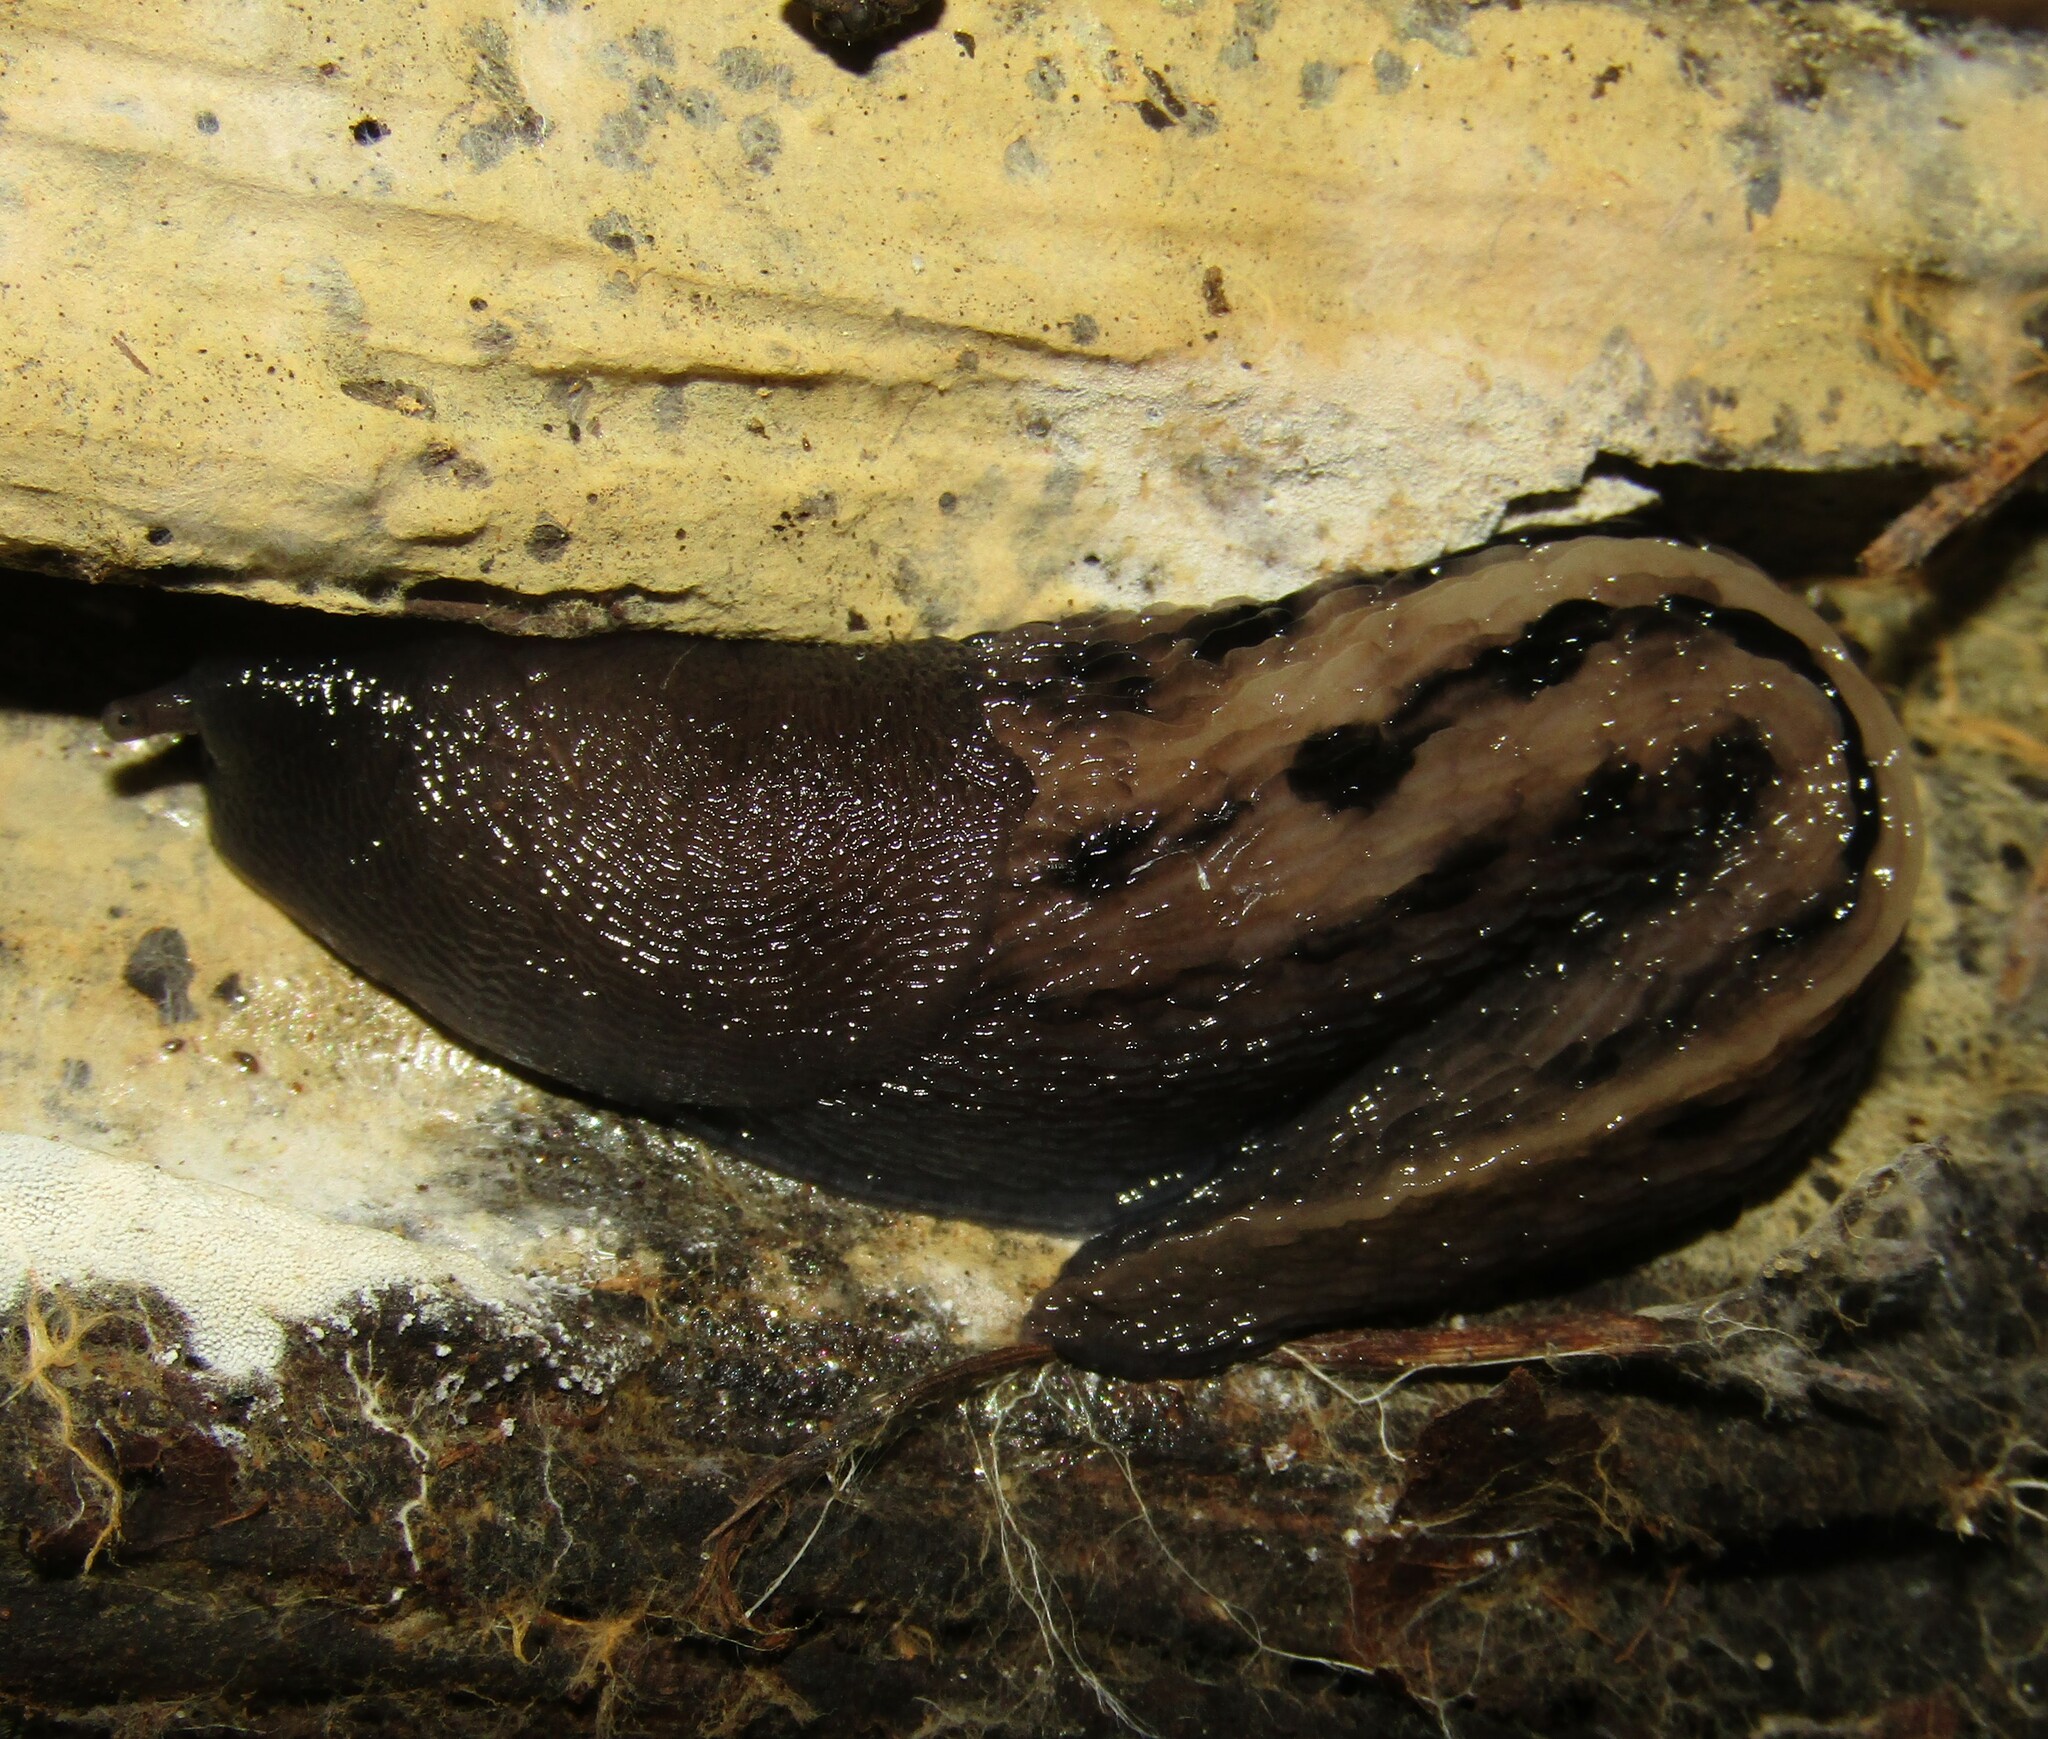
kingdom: Animalia
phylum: Mollusca
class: Gastropoda
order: Stylommatophora
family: Limacidae
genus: Limax
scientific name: Limax cinereoniger
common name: Ash-black slug
